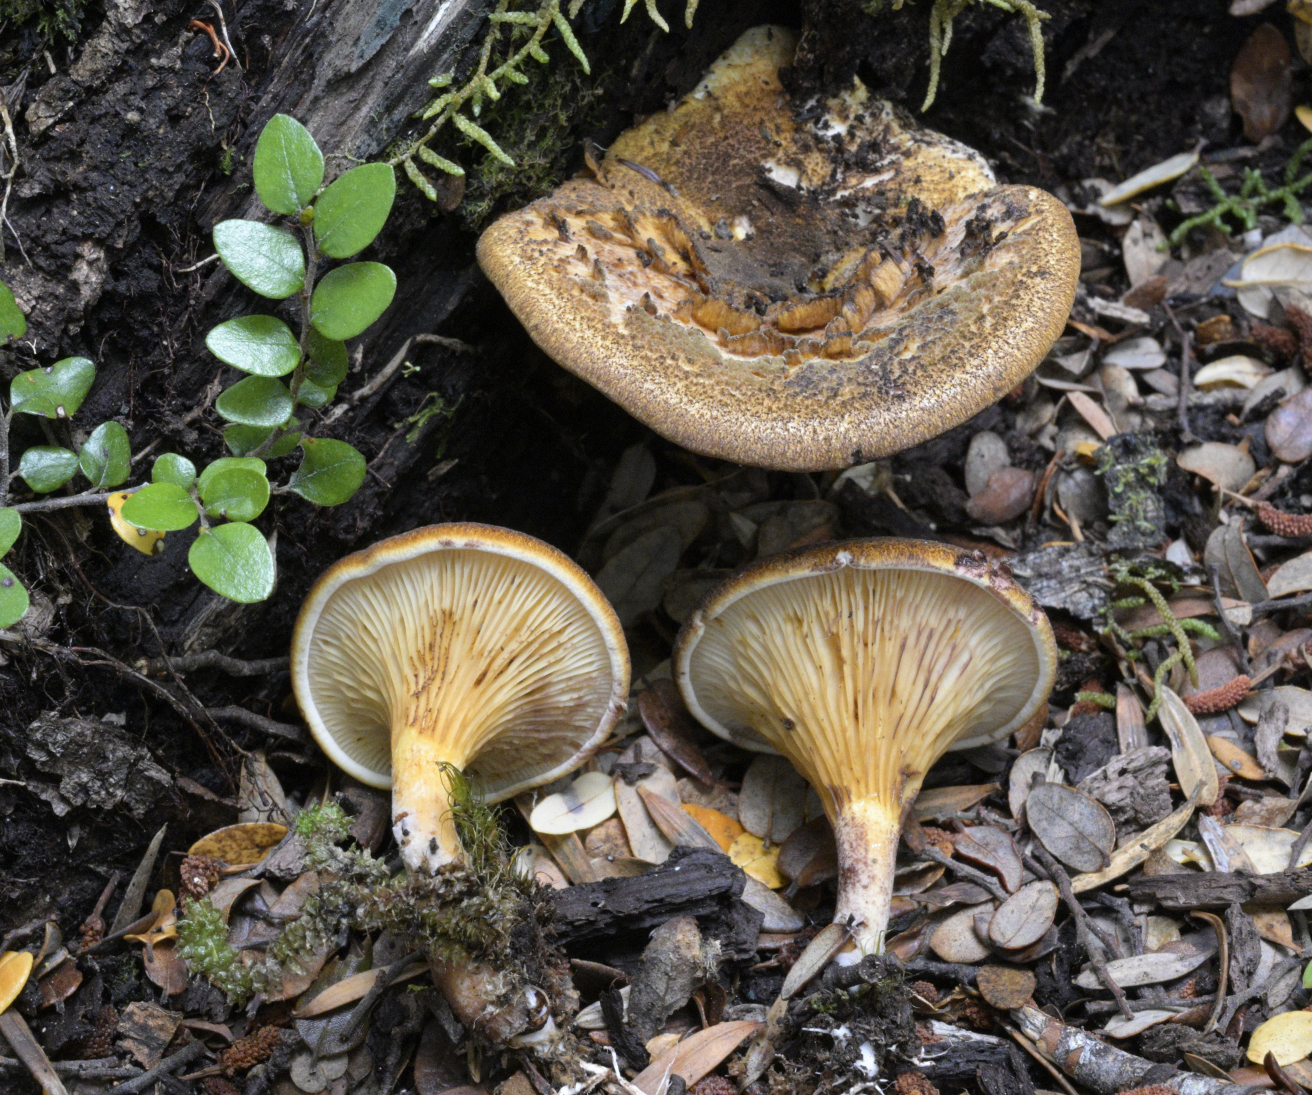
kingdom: Fungi
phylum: Basidiomycota
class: Agaricomycetes
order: Boletales
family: Serpulaceae
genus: Austropaxillus
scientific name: Austropaxillus squarrosus
